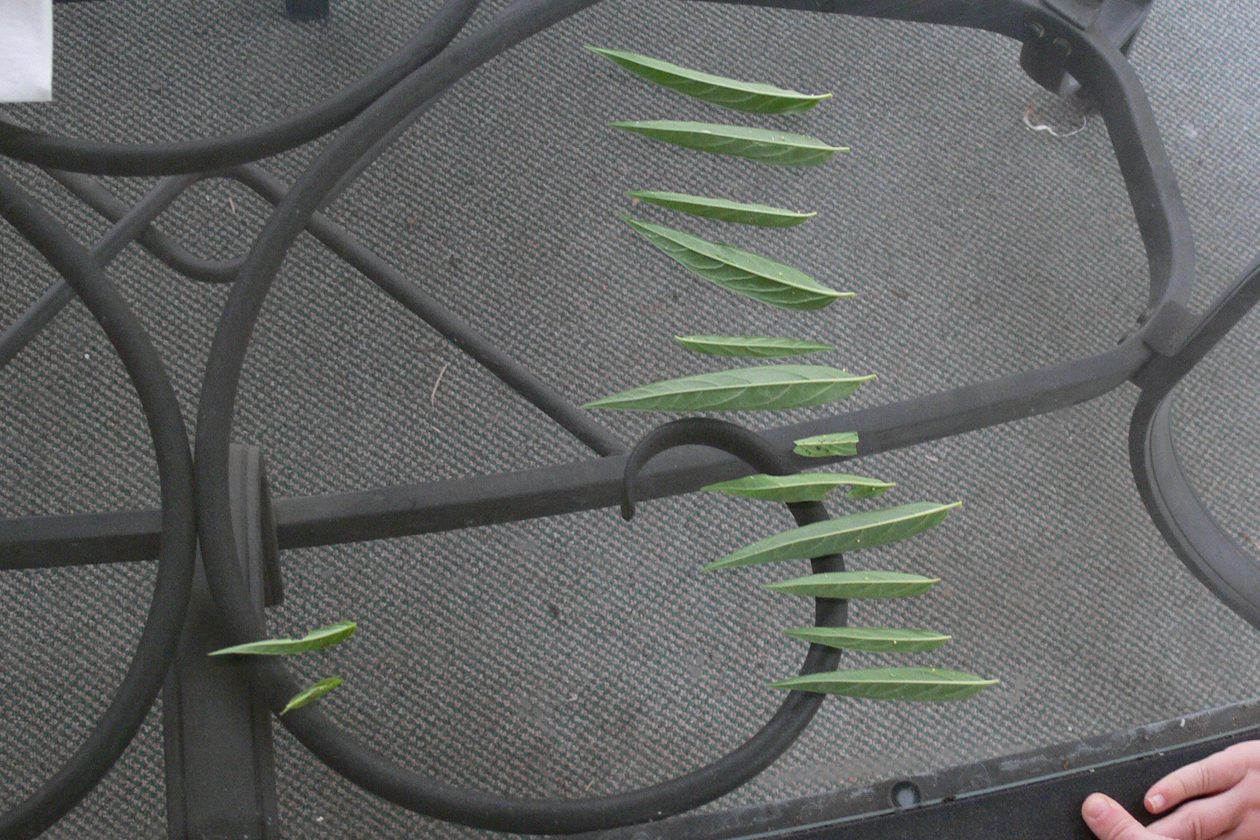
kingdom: Animalia
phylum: Arthropoda
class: Insecta
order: Lepidoptera
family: Nymphalidae
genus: Danaus
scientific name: Danaus plexippus
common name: Monarch
